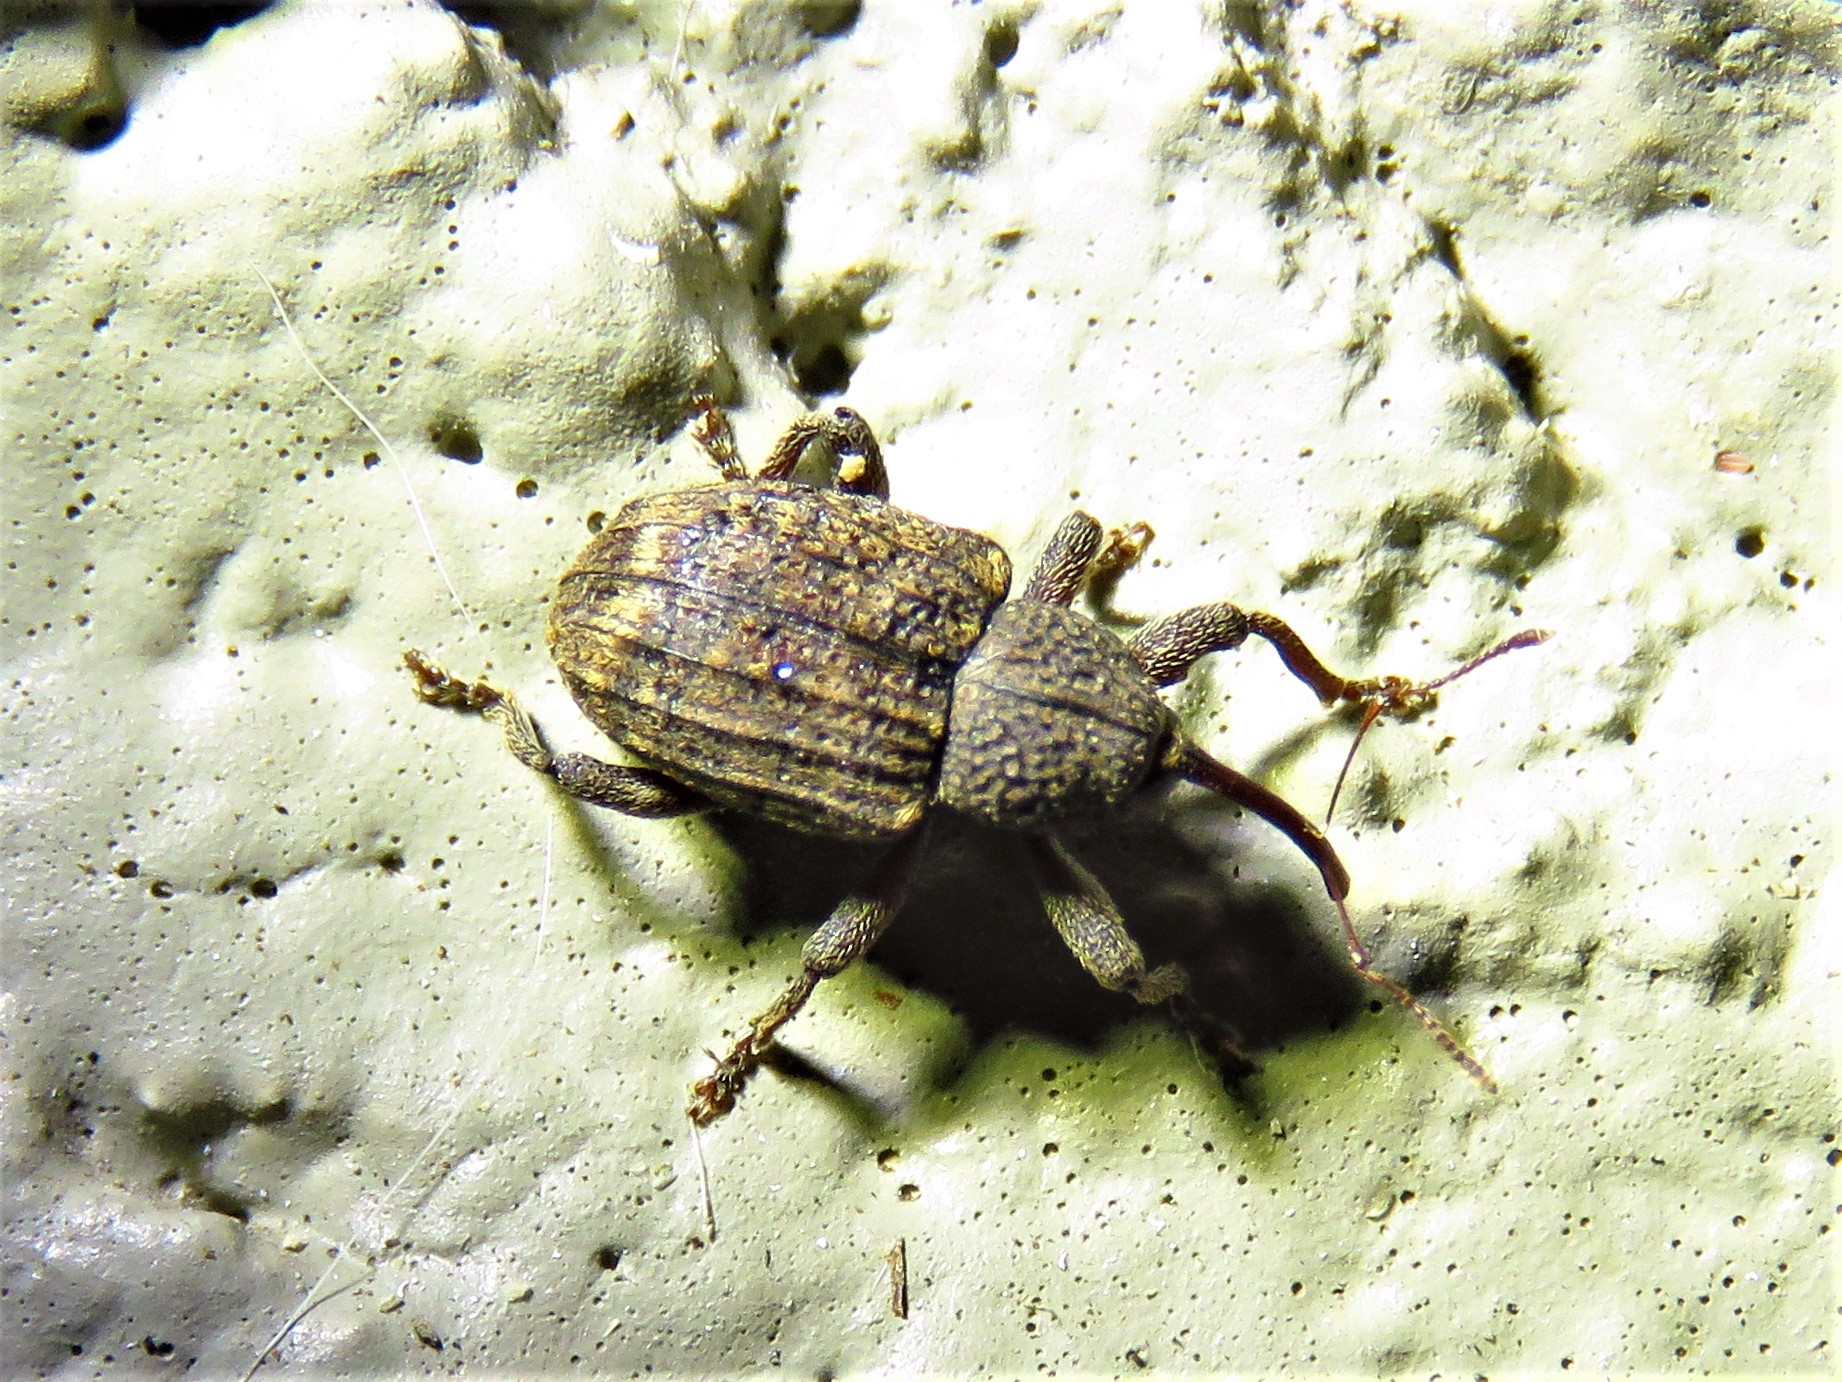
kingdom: Animalia
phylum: Arthropoda
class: Insecta
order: Coleoptera
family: Curculionidae
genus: Conotrachelus
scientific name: Conotrachelus carinifer
